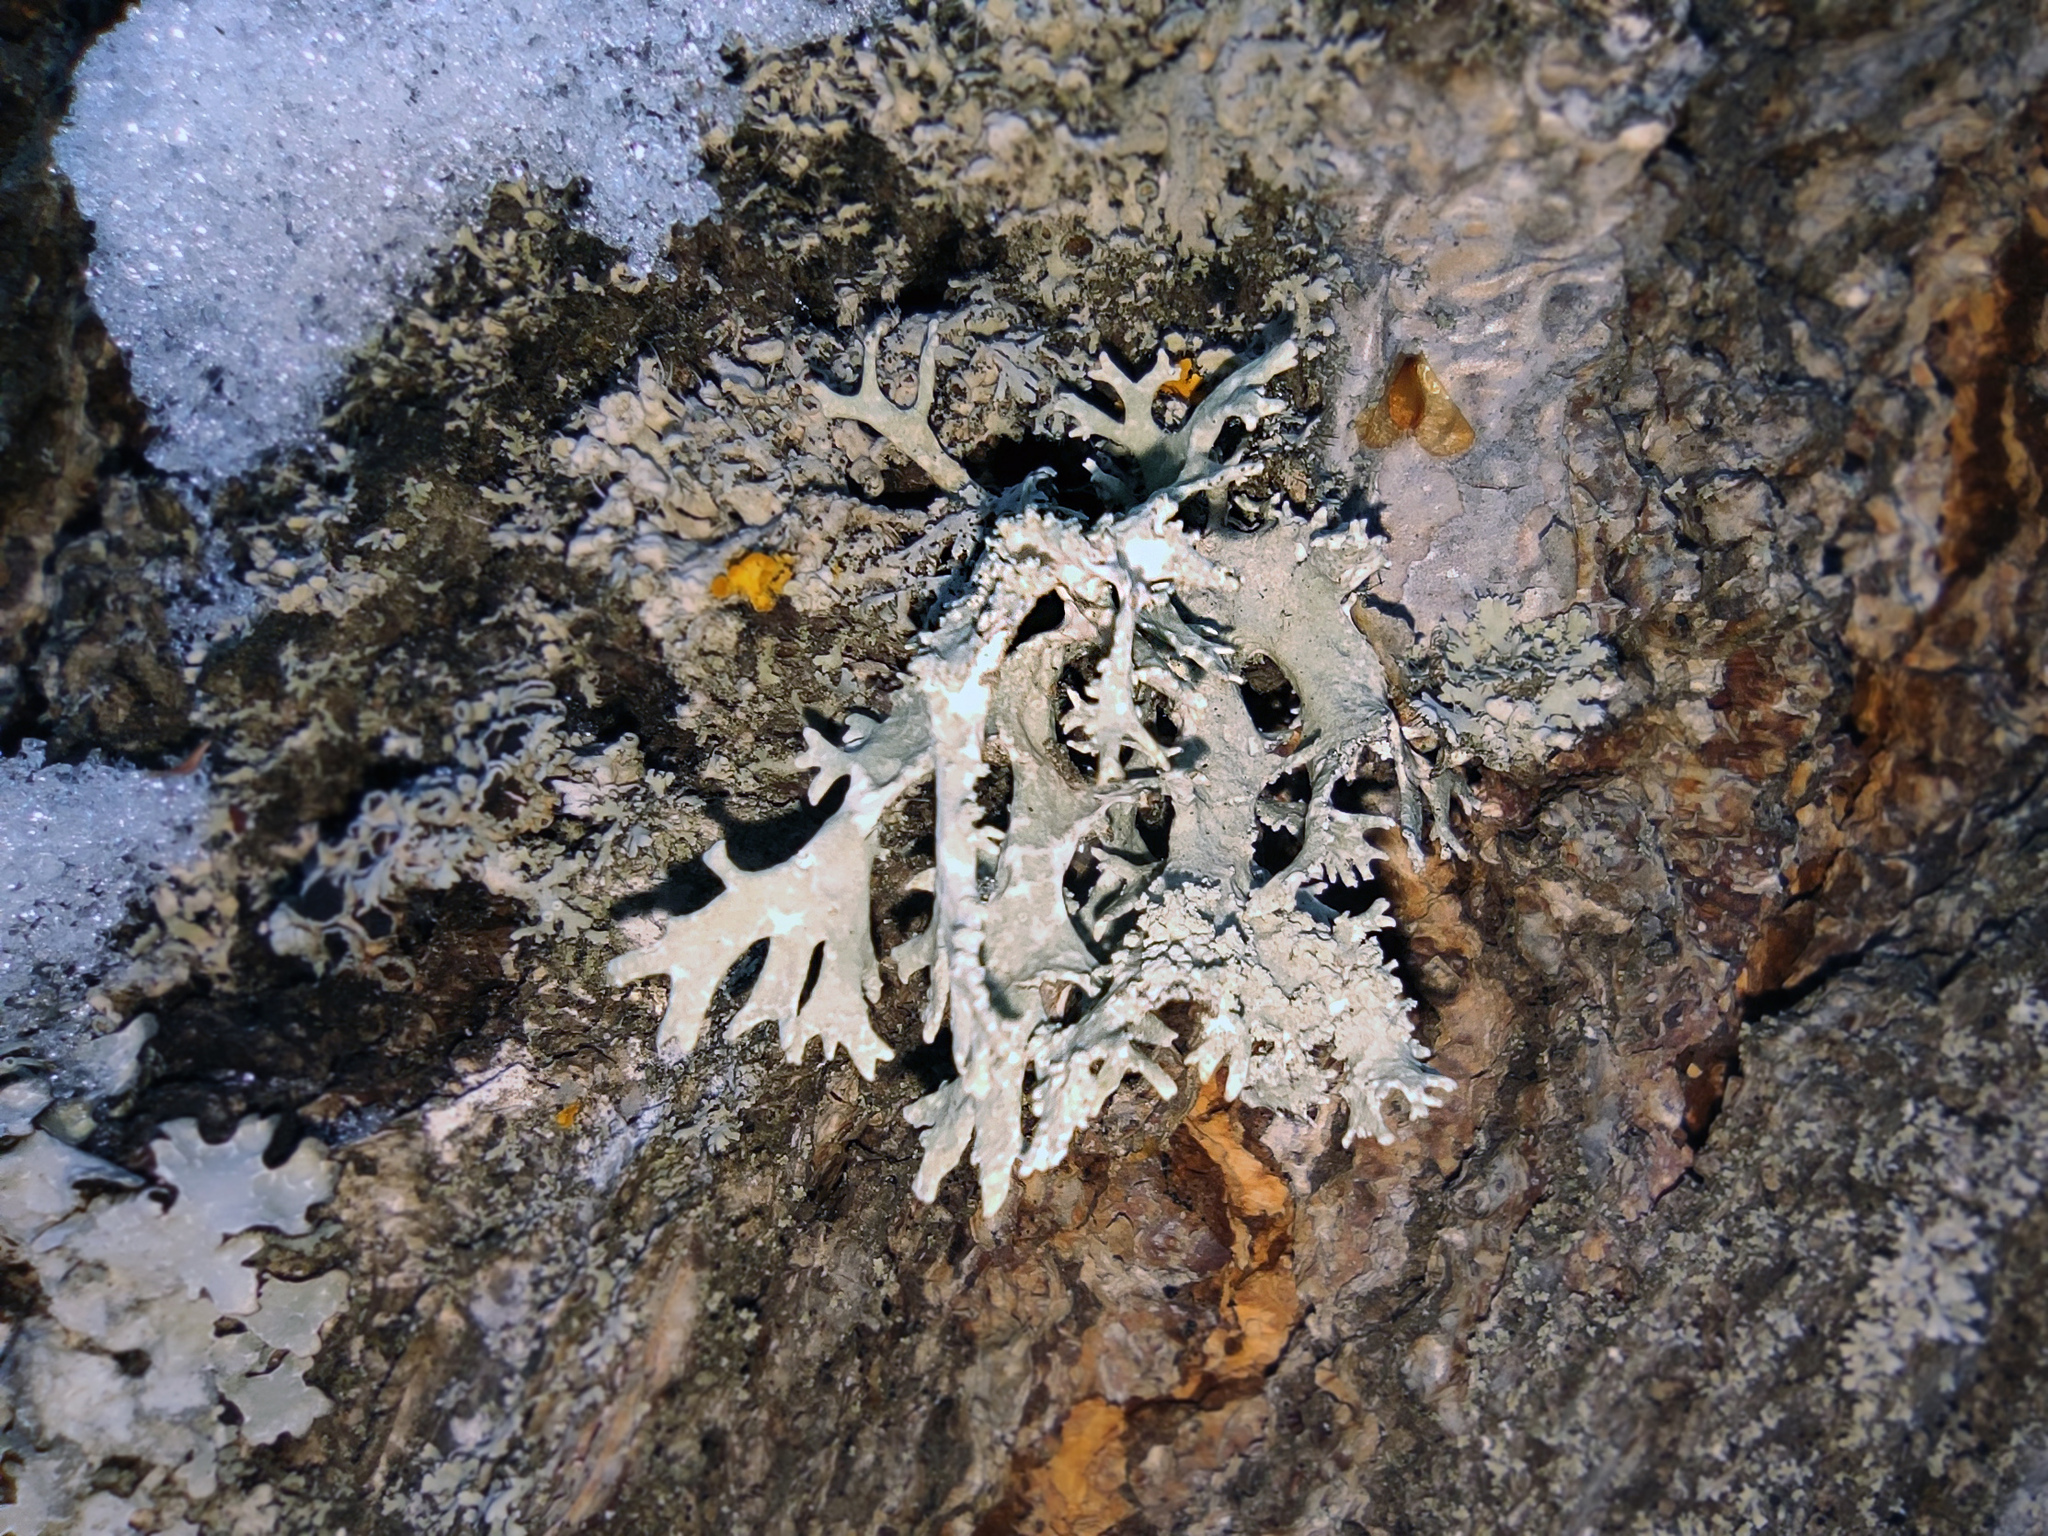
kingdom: Fungi
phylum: Ascomycota
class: Lecanoromycetes
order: Lecanorales
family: Parmeliaceae
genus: Evernia
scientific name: Evernia prunastri
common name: Oak moss
